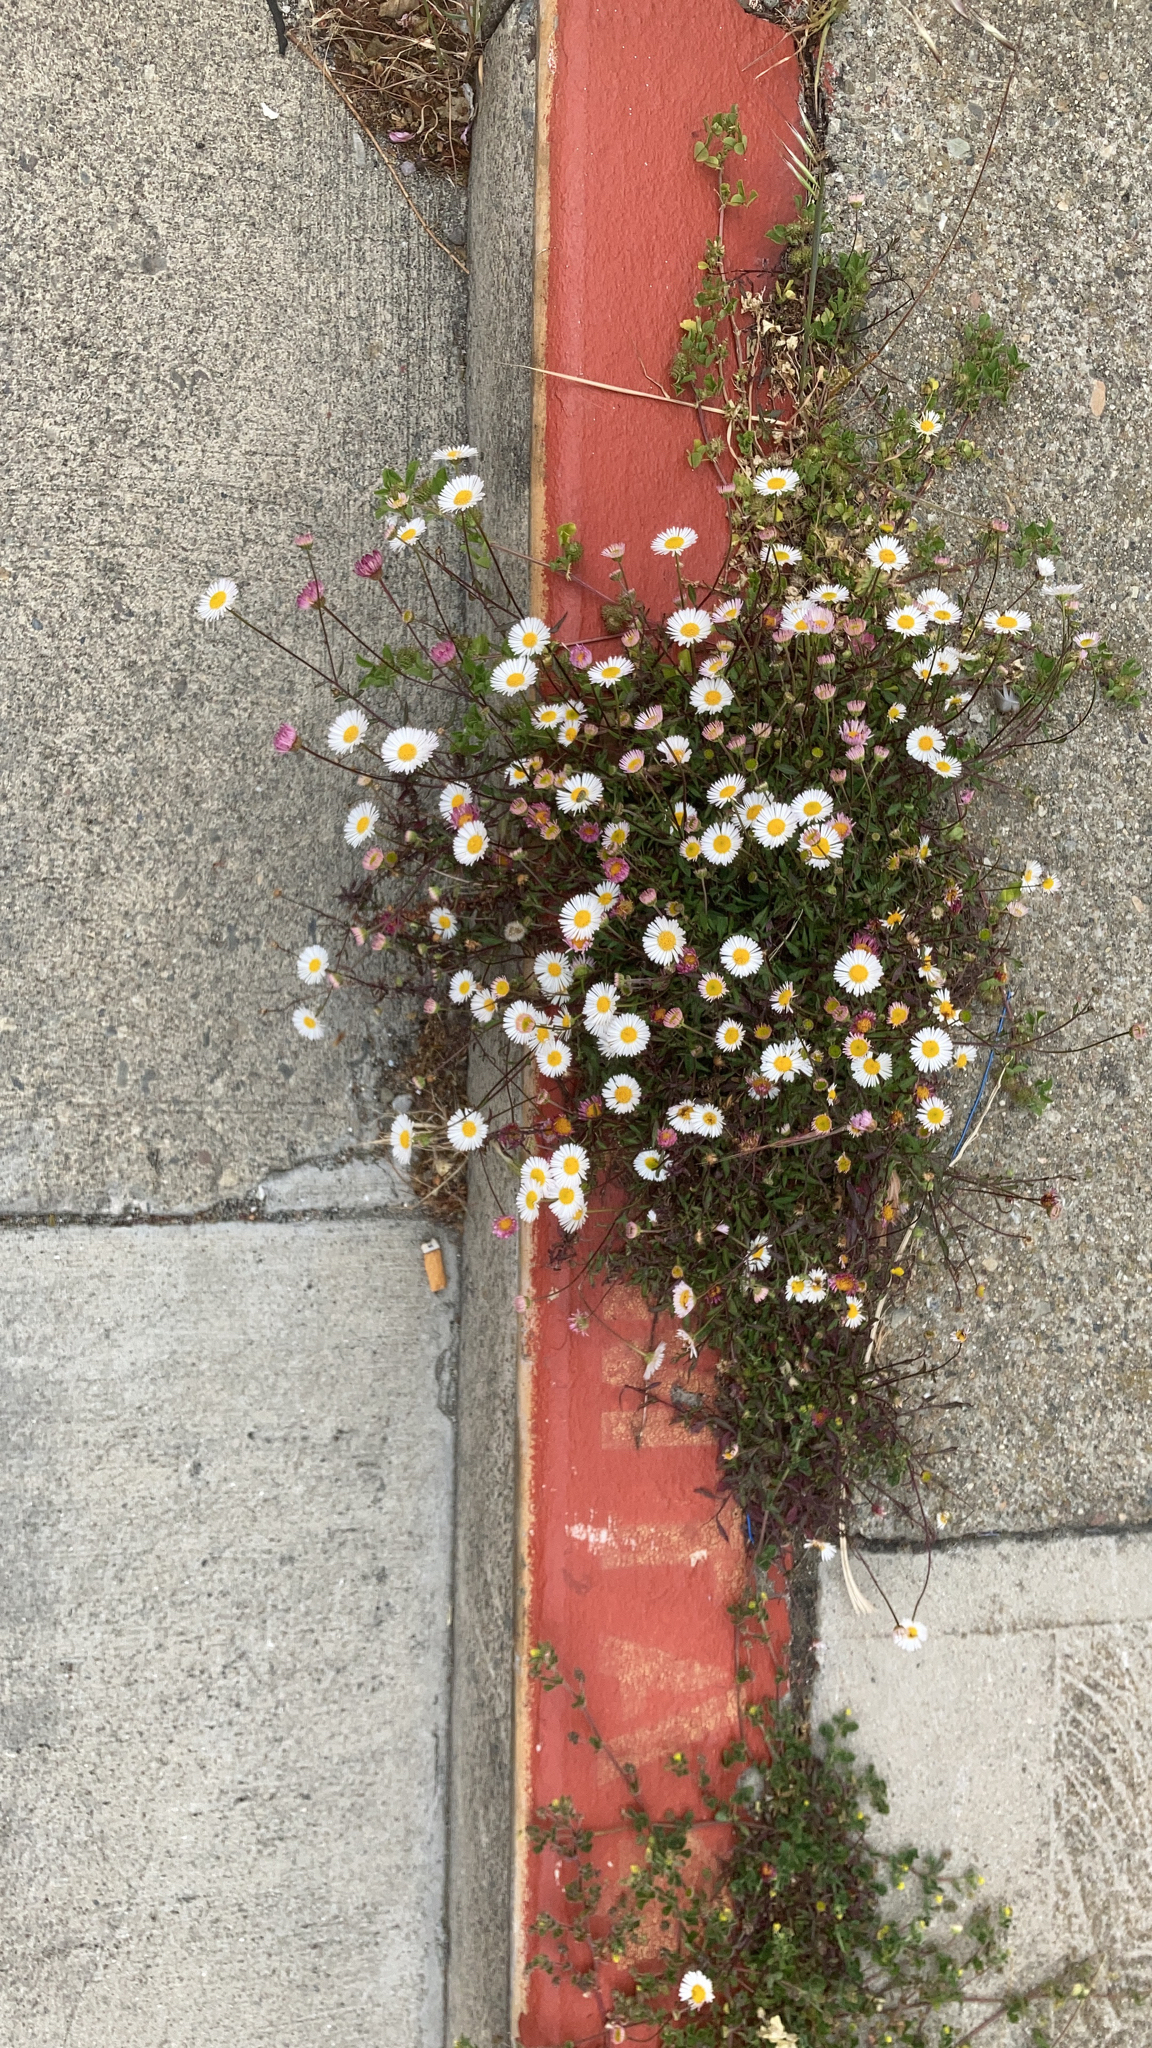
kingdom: Plantae
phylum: Tracheophyta
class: Magnoliopsida
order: Asterales
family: Asteraceae
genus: Erigeron
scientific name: Erigeron karvinskianus
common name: Mexican fleabane
